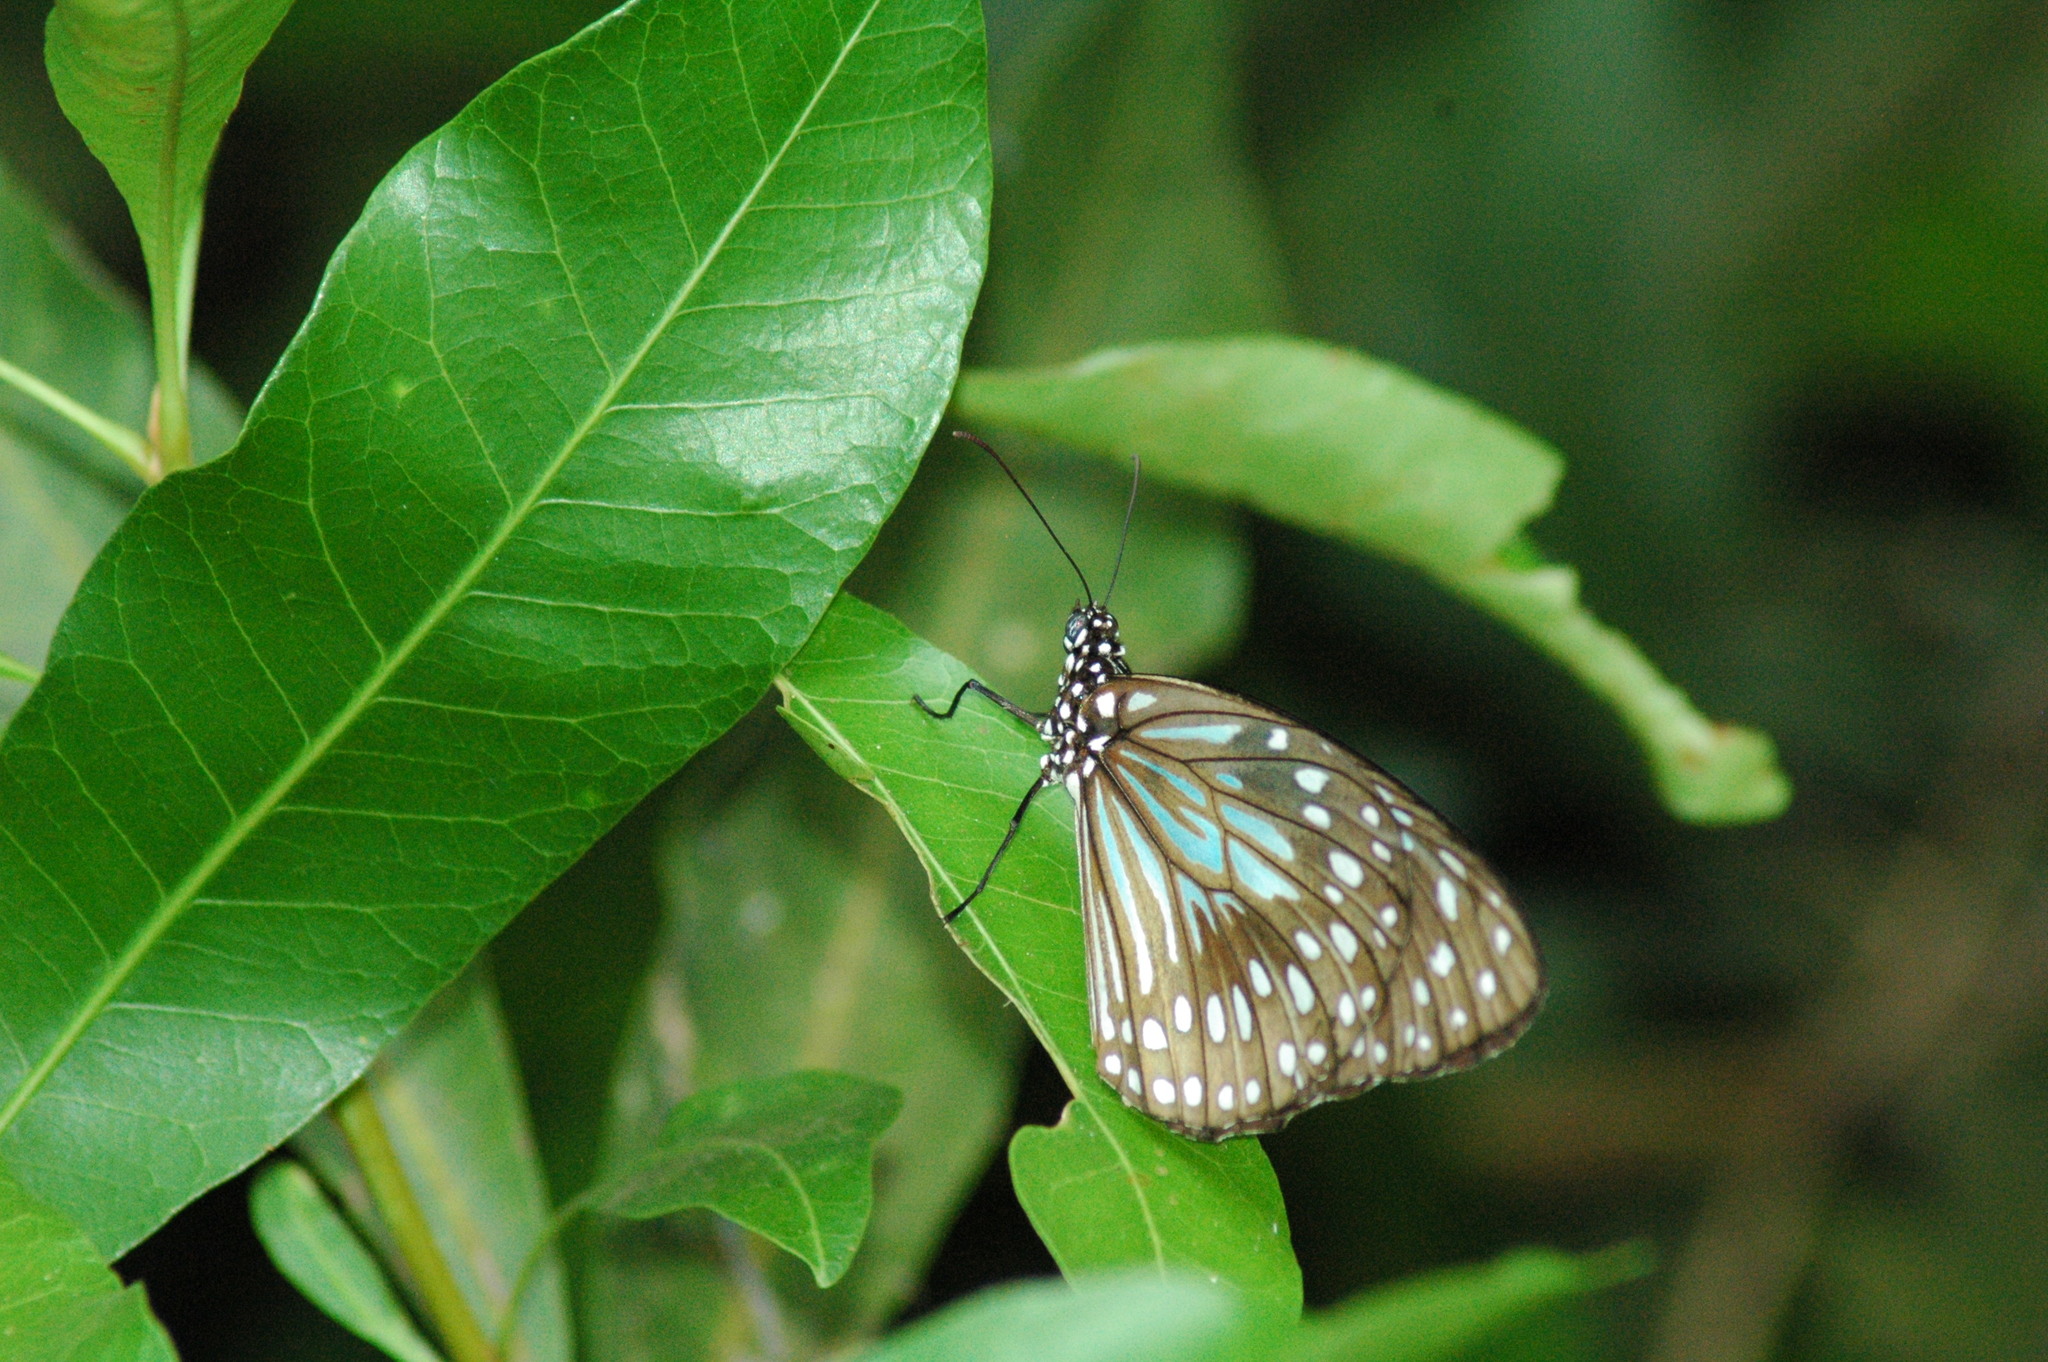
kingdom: Animalia
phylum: Arthropoda
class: Insecta
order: Lepidoptera
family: Nymphalidae
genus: Tirumala
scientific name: Tirumala hamata
